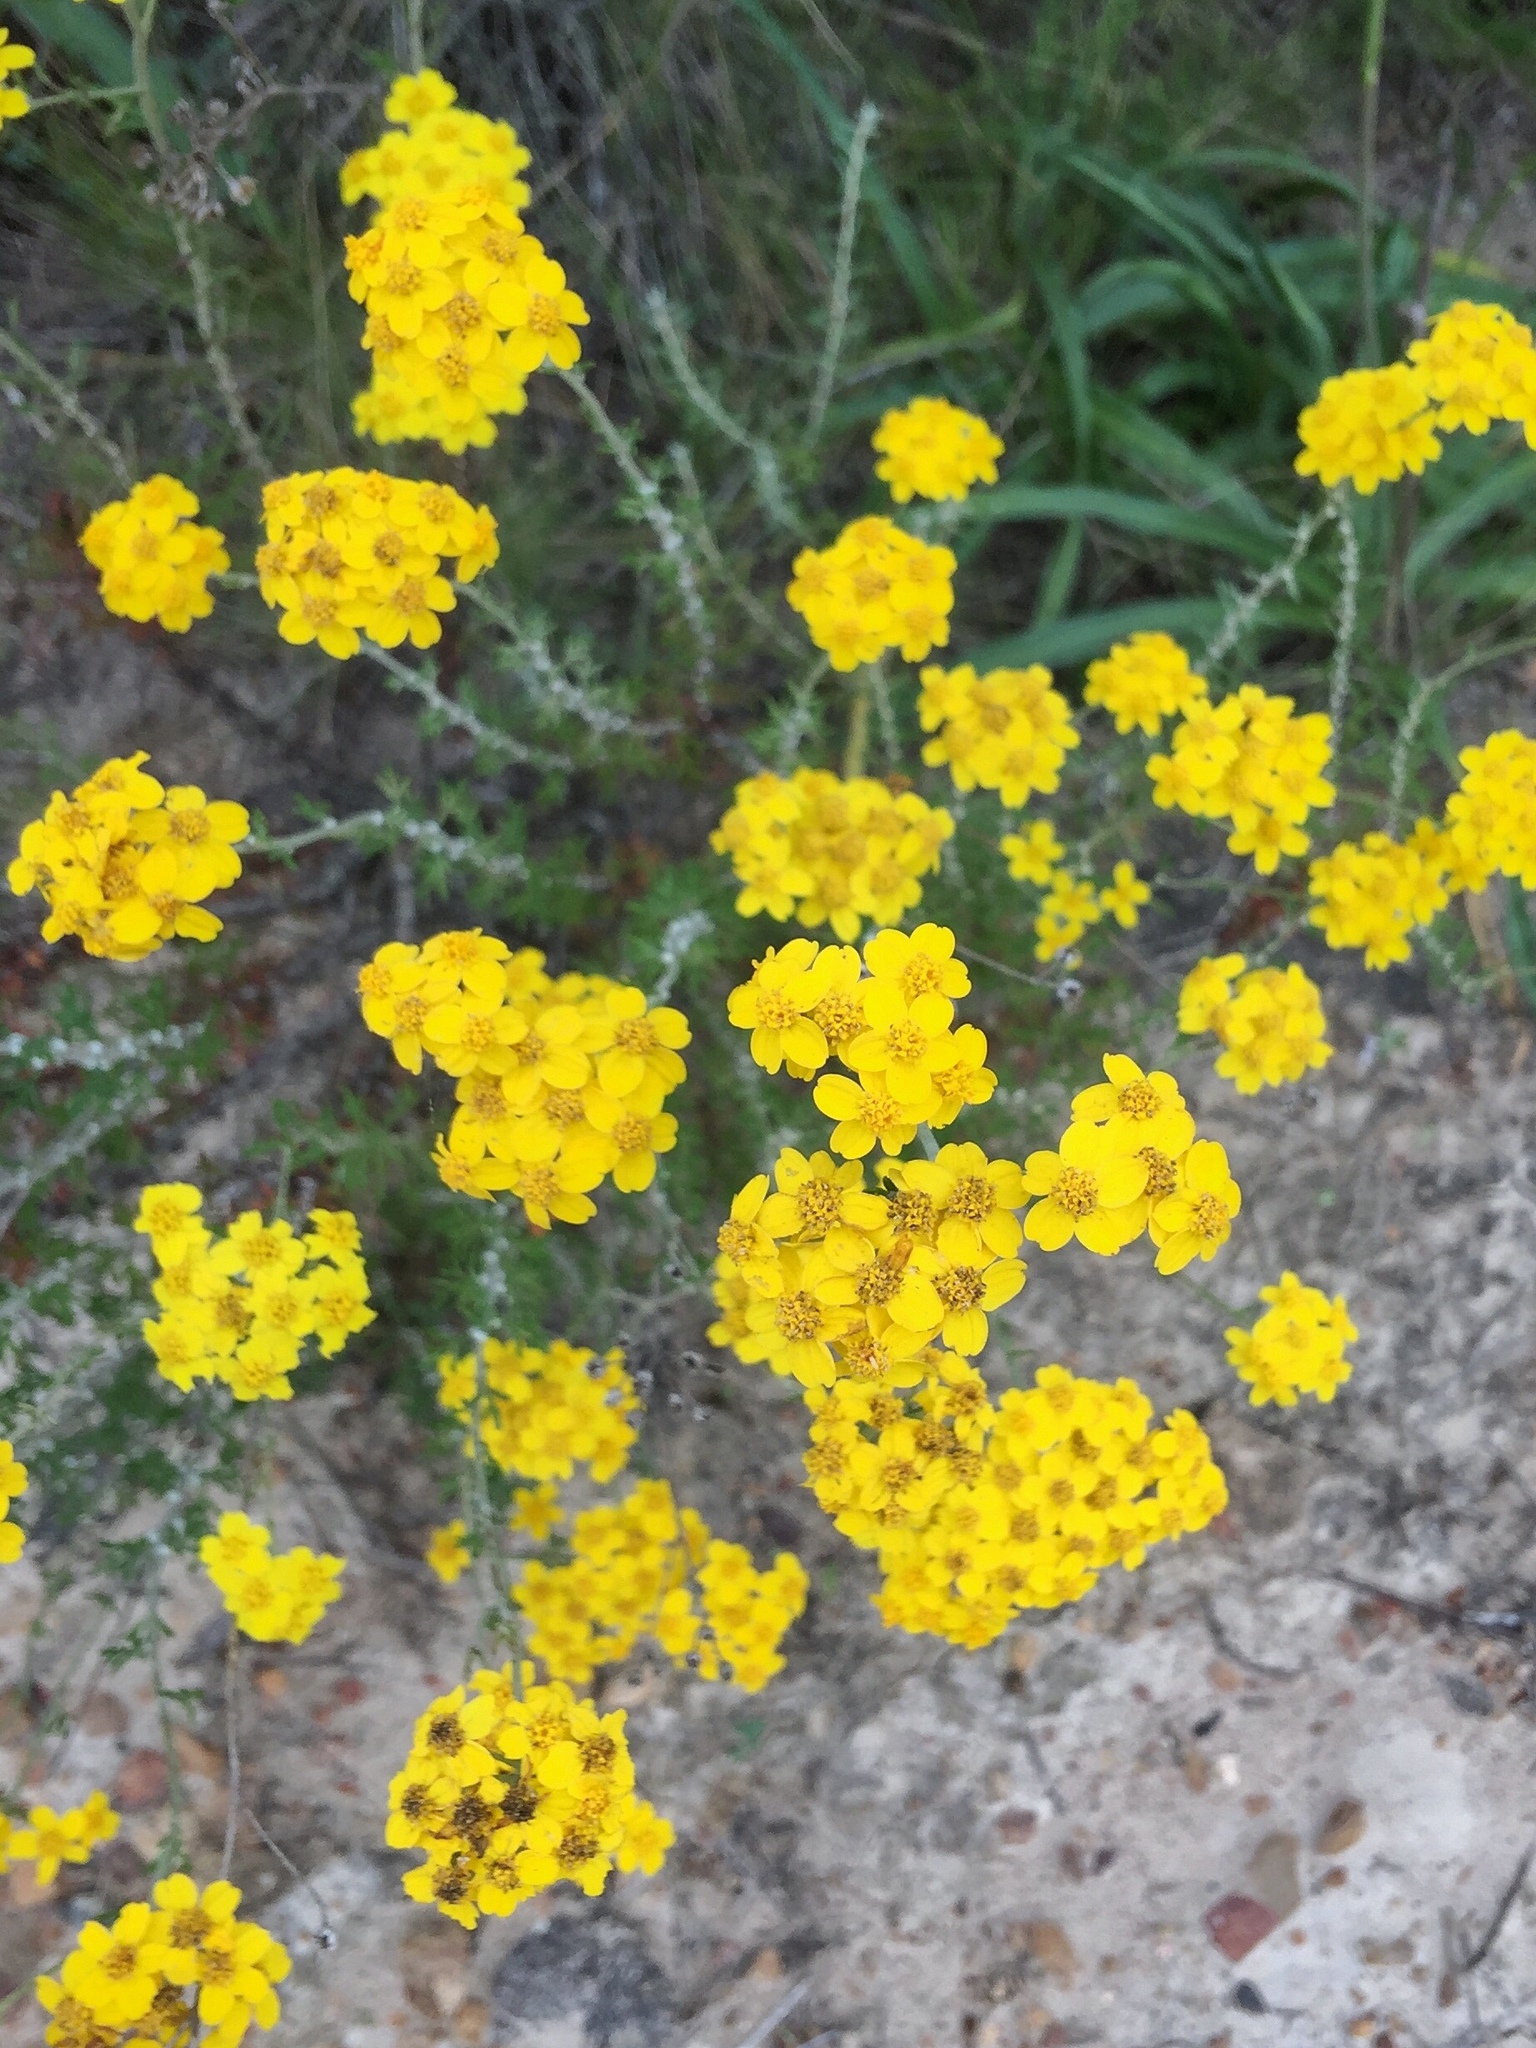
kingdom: Plantae
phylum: Tracheophyta
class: Magnoliopsida
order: Asterales
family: Asteraceae
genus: Eriophyllum
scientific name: Eriophyllum confertiflorum
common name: Golden-yarrow
